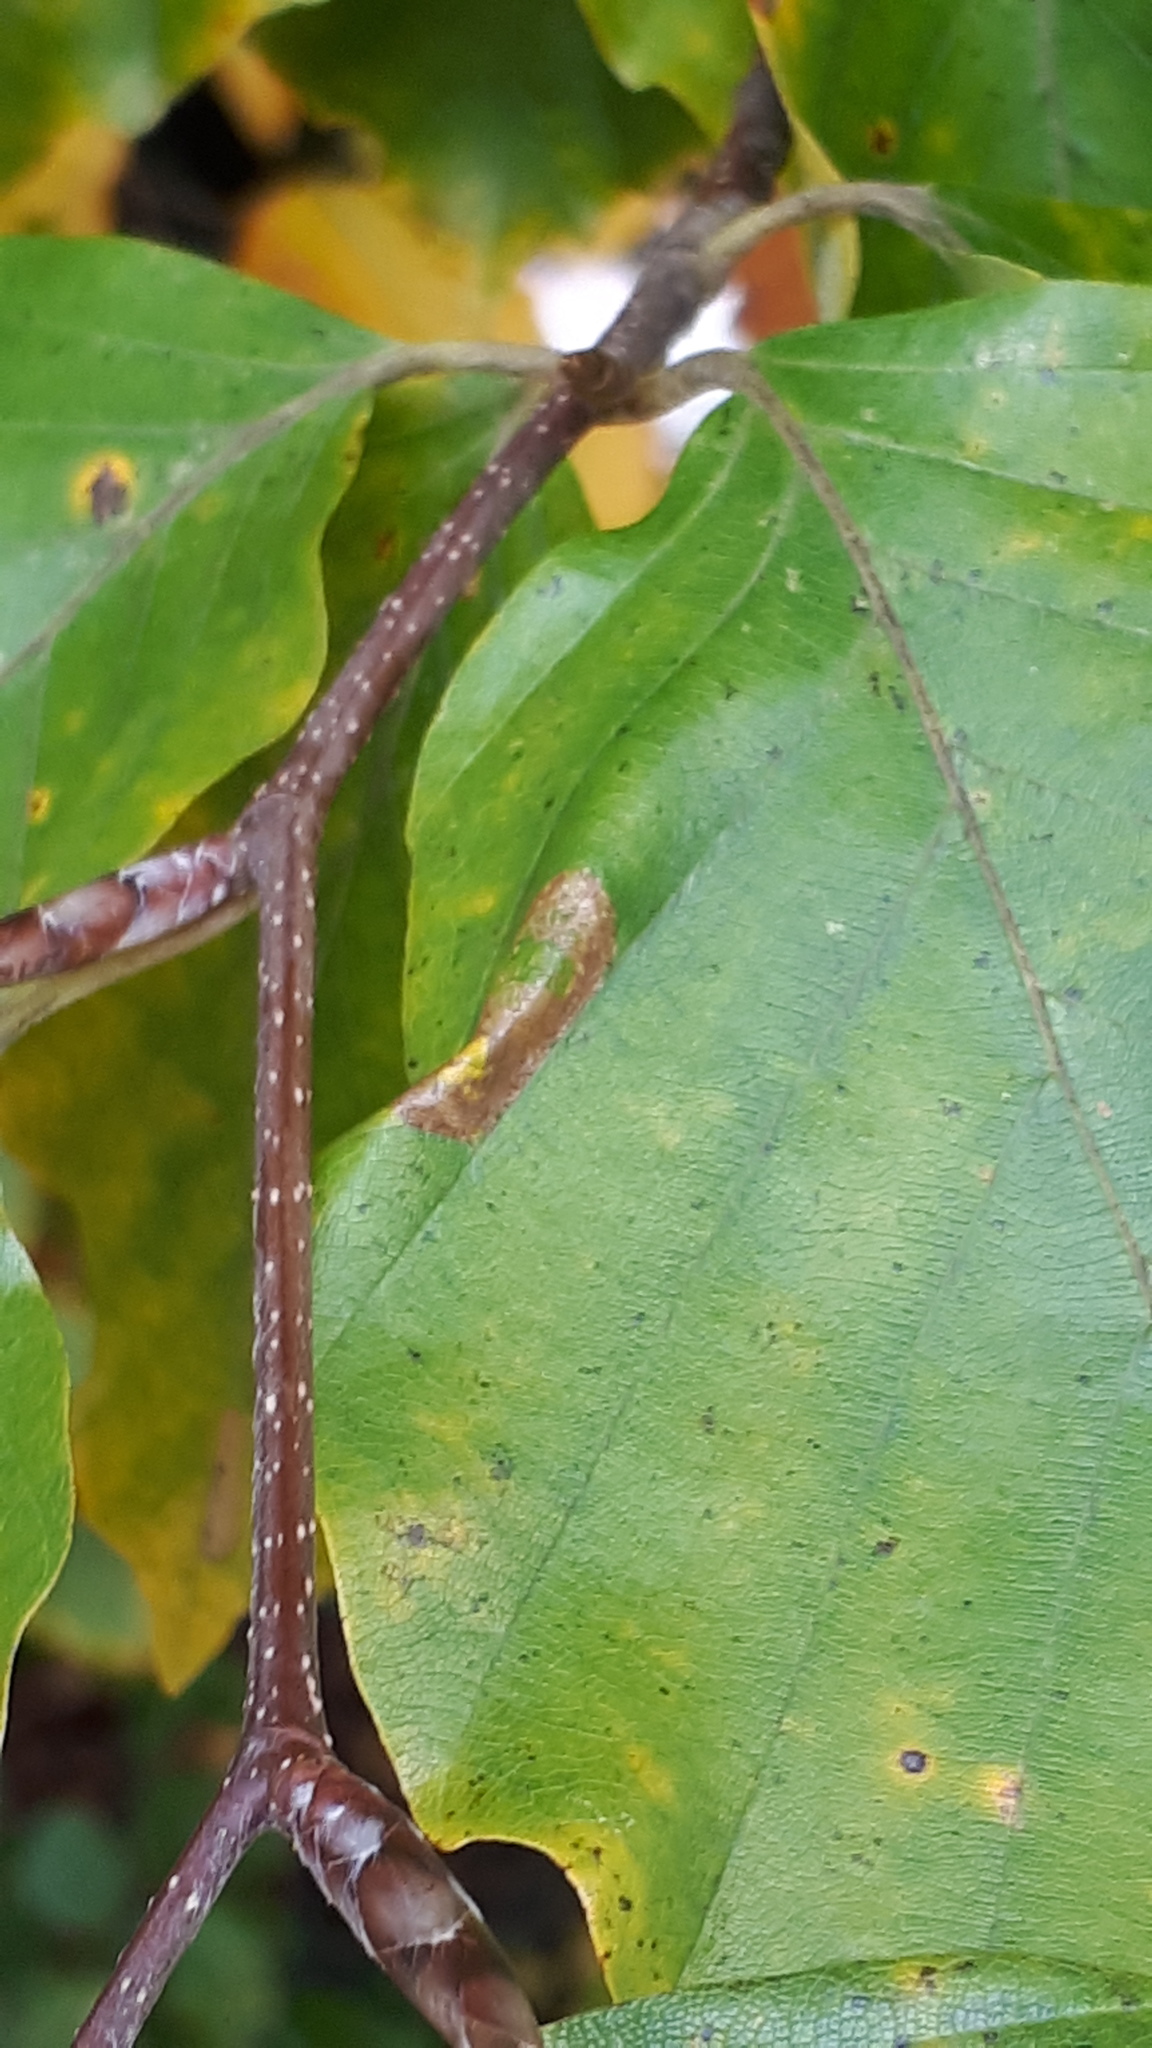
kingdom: Animalia
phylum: Arthropoda
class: Insecta
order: Lepidoptera
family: Gracillariidae
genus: Phyllonorycter
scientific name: Phyllonorycter maestingella
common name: Beech midget
